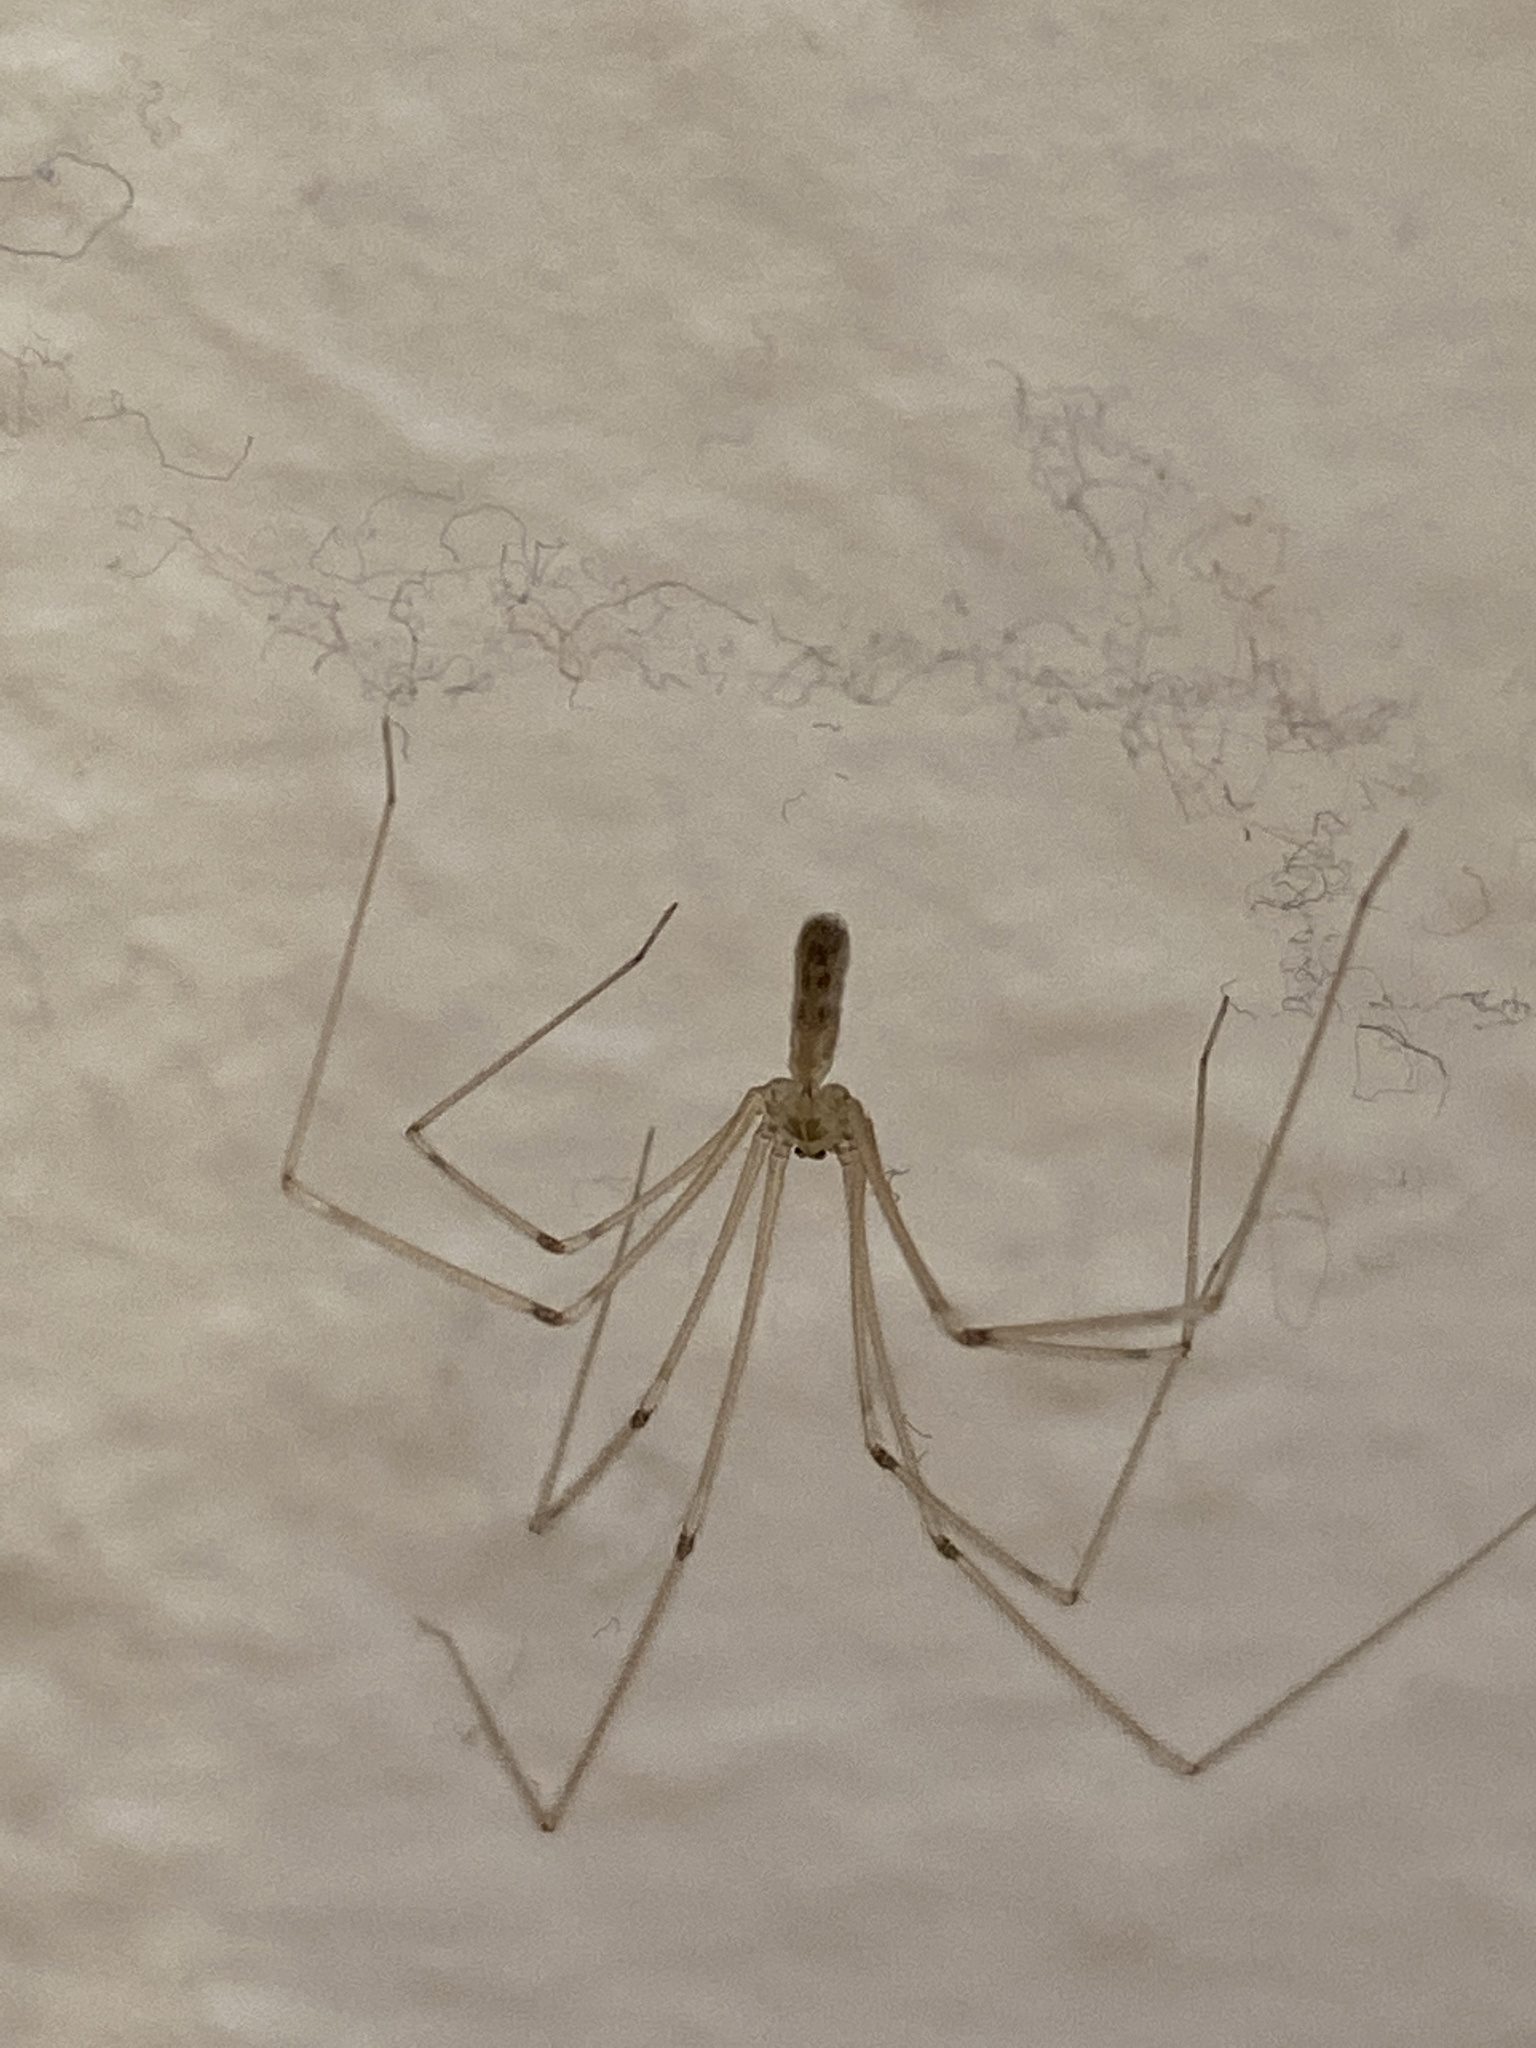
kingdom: Animalia
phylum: Arthropoda
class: Arachnida
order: Araneae
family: Pholcidae
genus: Pholcus
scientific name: Pholcus phalangioides
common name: Longbodied cellar spider
